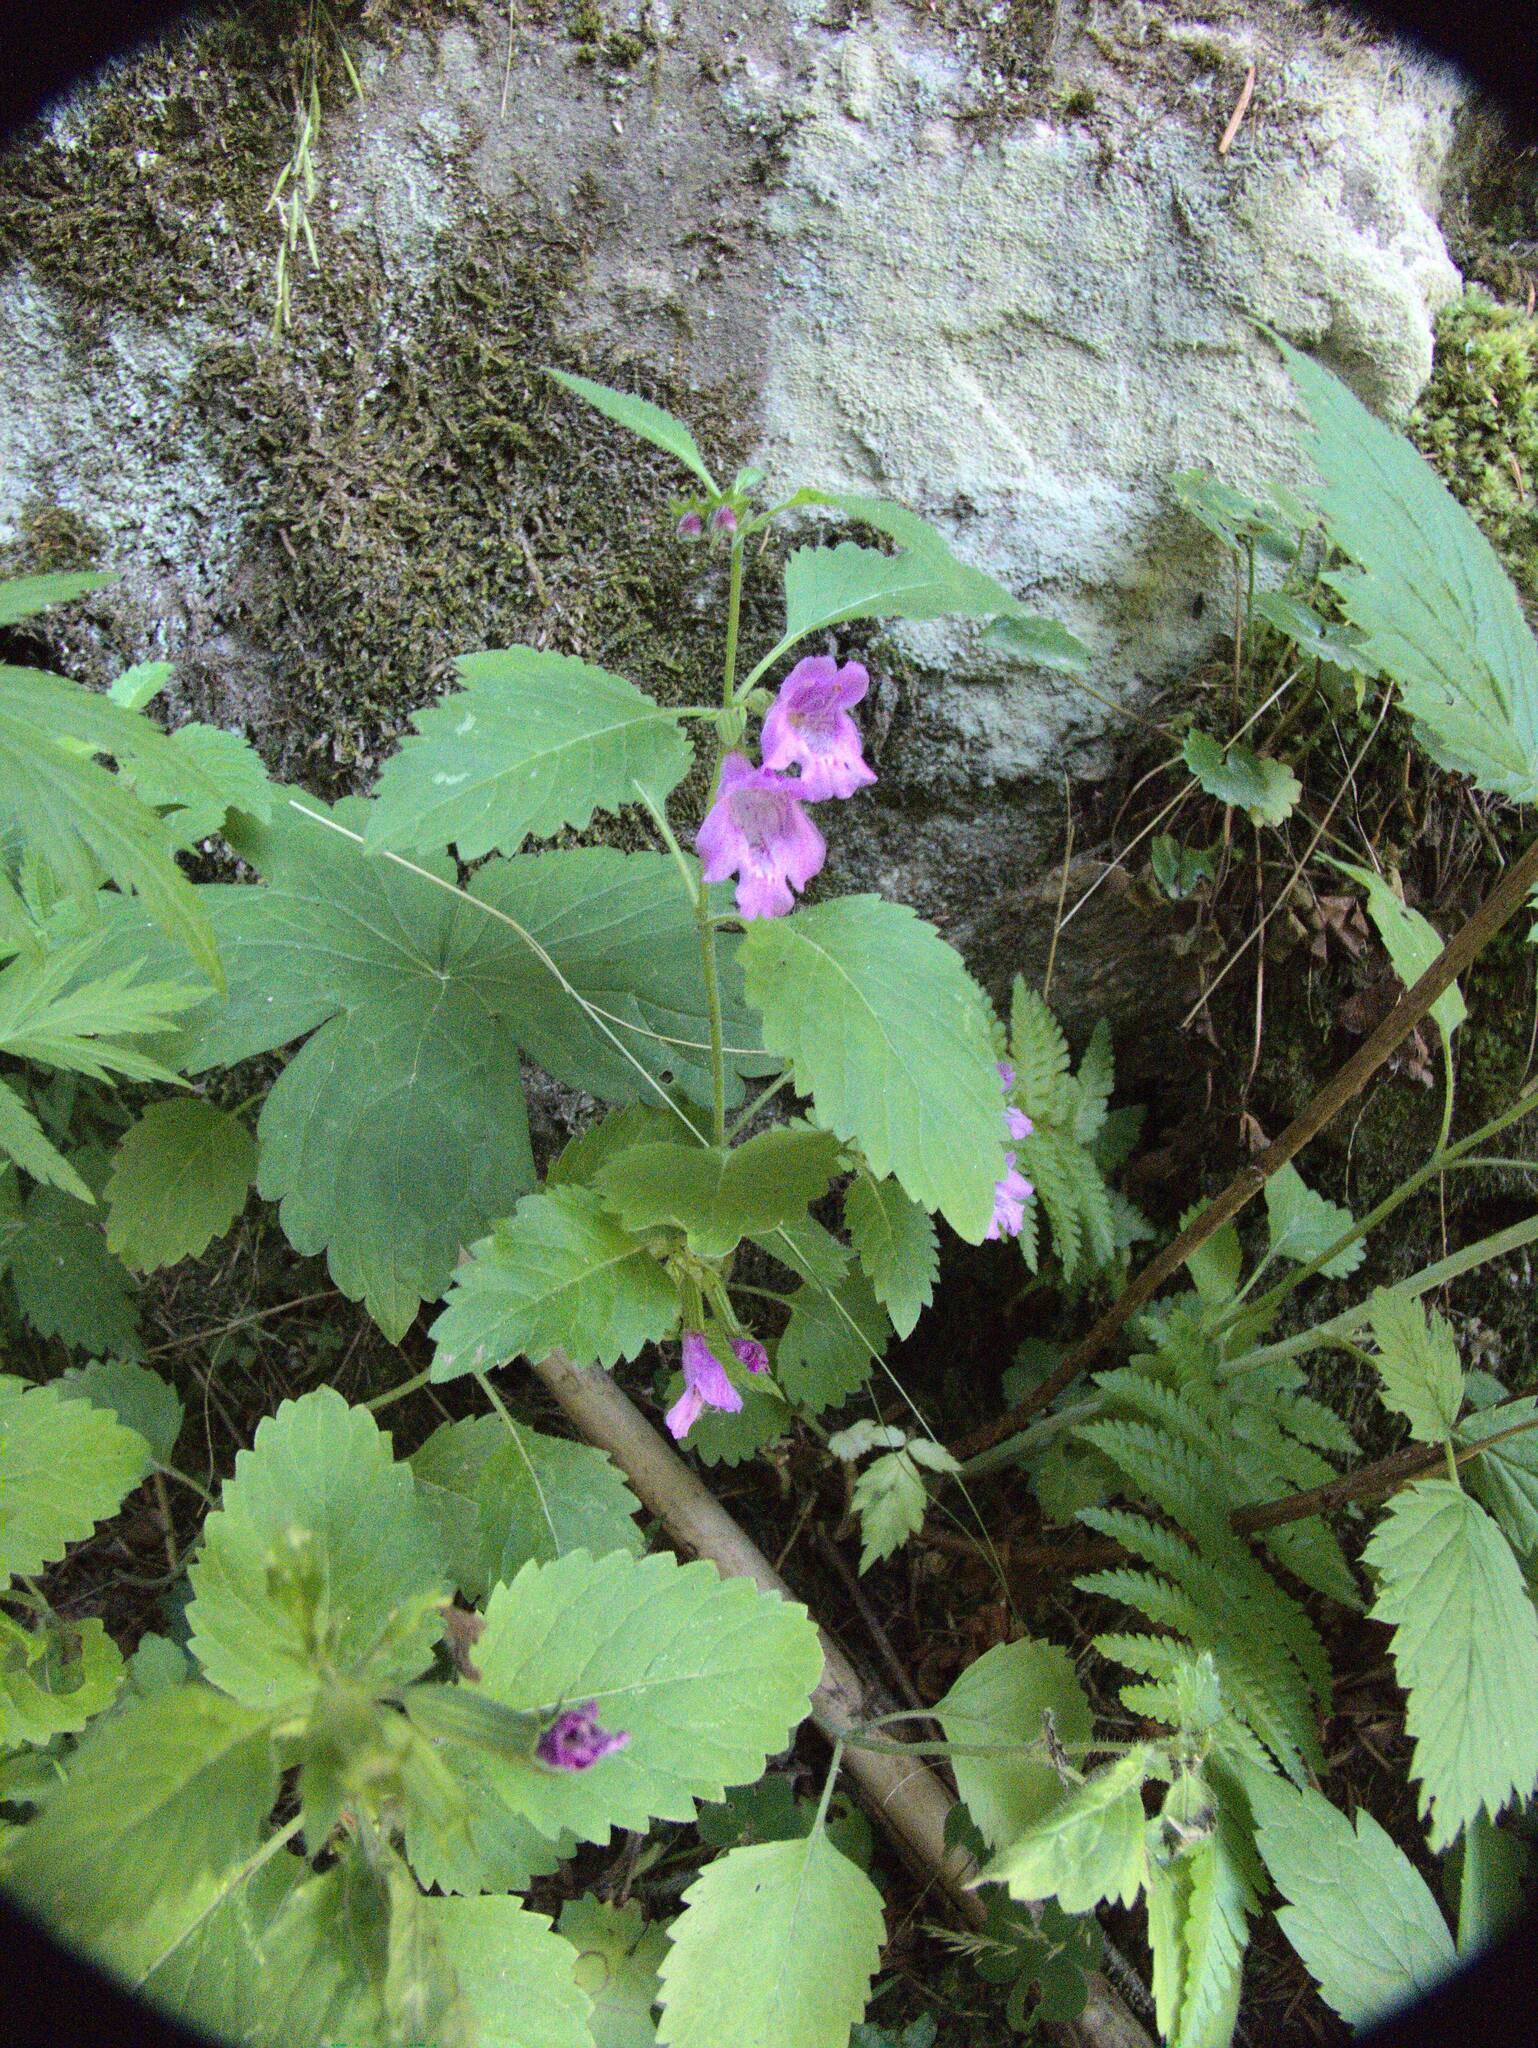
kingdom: Plantae
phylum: Tracheophyta
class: Magnoliopsida
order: Lamiales
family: Lamiaceae
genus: Clinopodium
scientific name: Clinopodium grandiflorum
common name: Greater calamint
